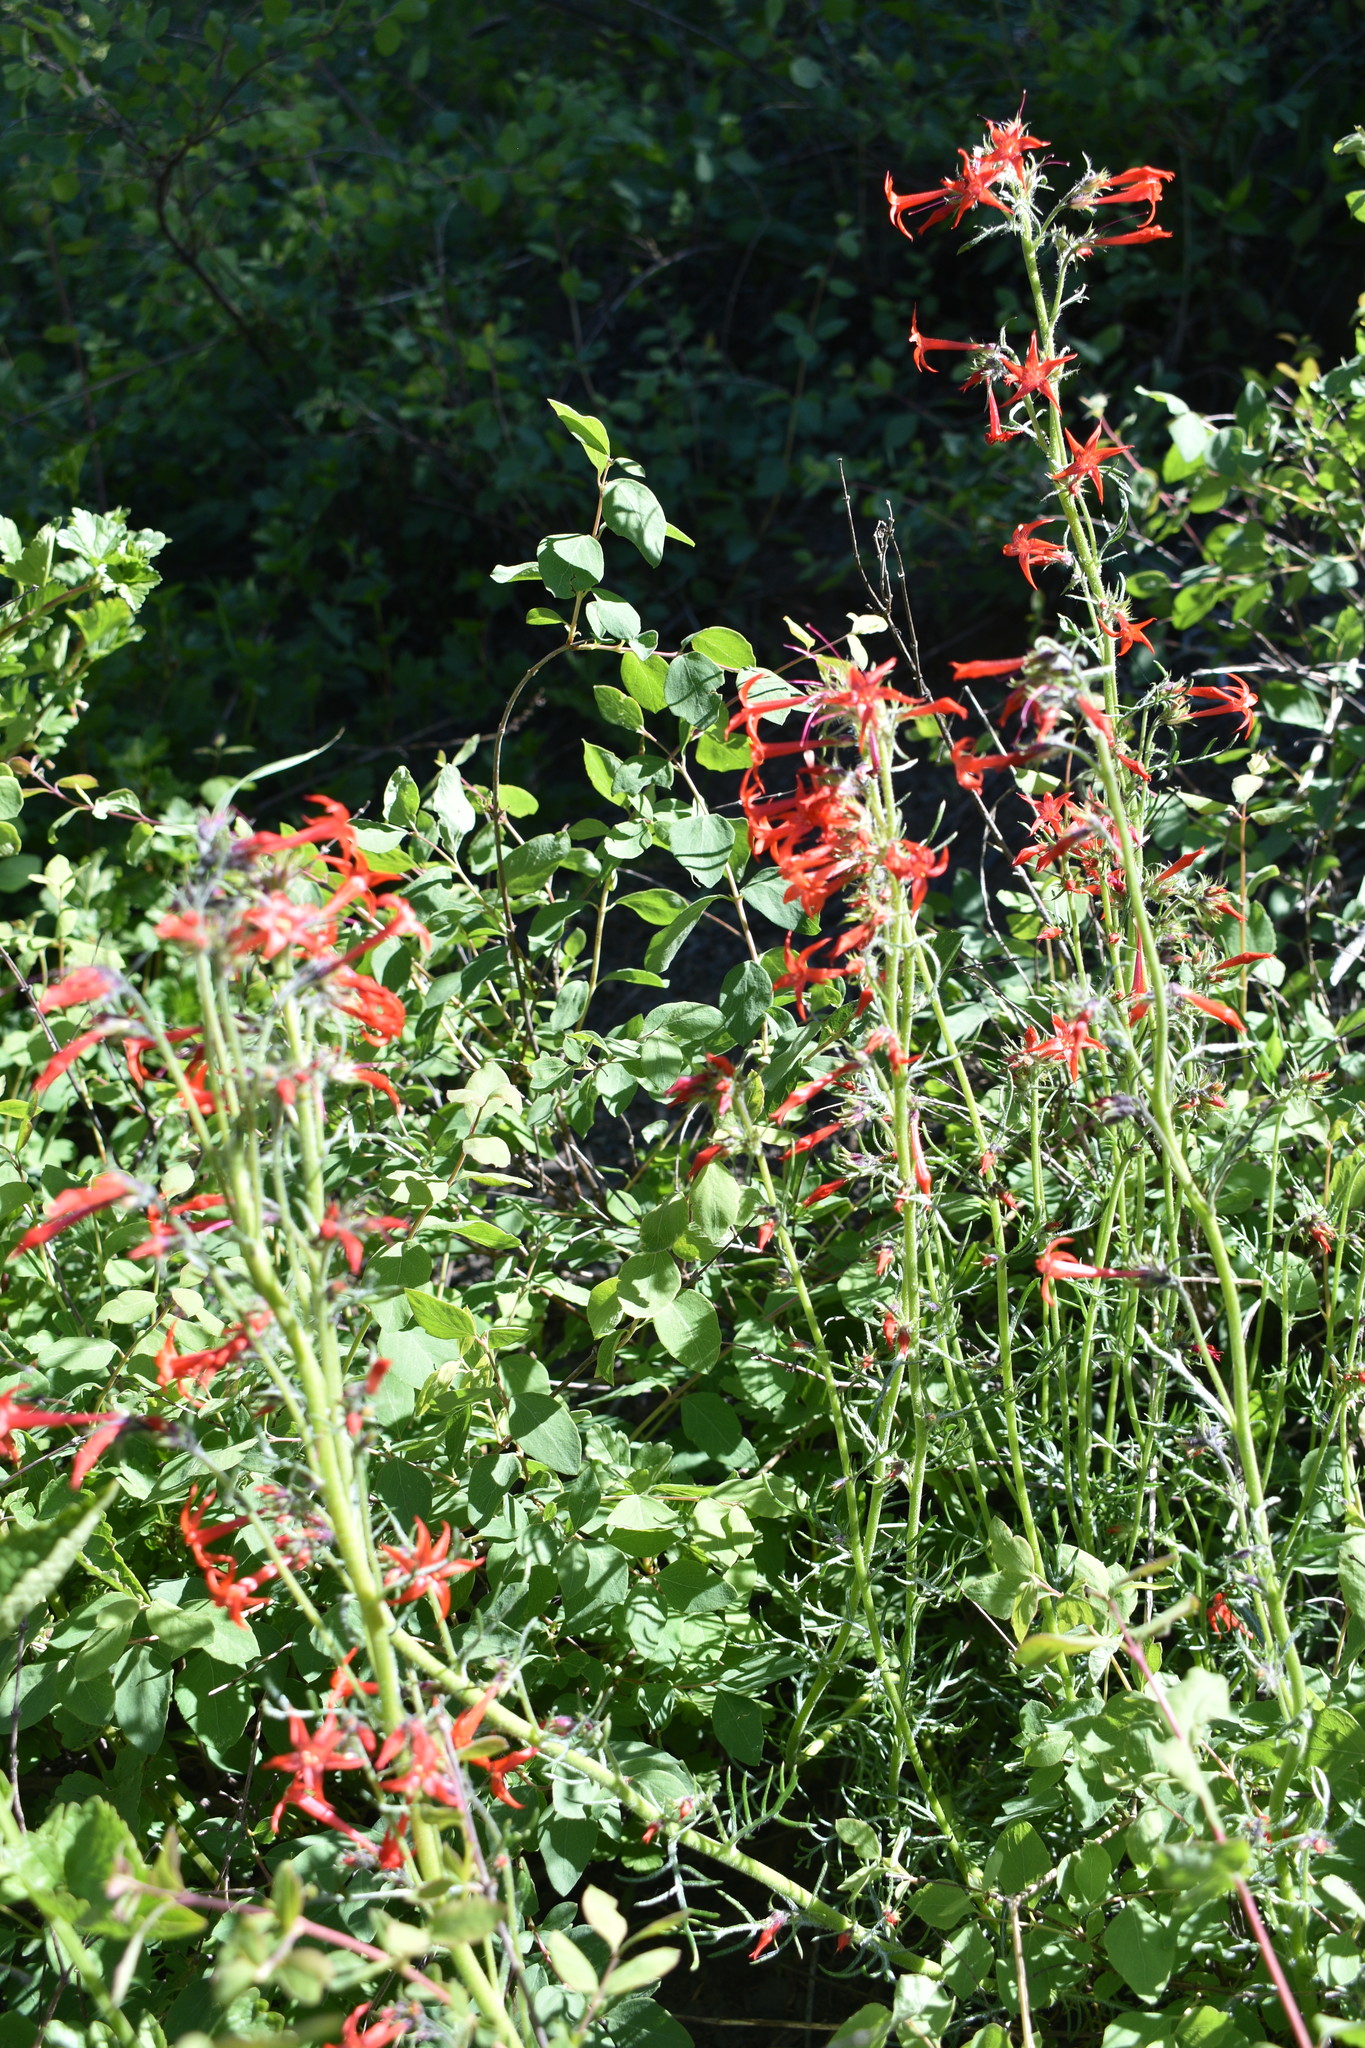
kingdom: Plantae
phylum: Tracheophyta
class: Magnoliopsida
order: Ericales
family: Polemoniaceae
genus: Ipomopsis
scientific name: Ipomopsis aggregata
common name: Scarlet gilia
